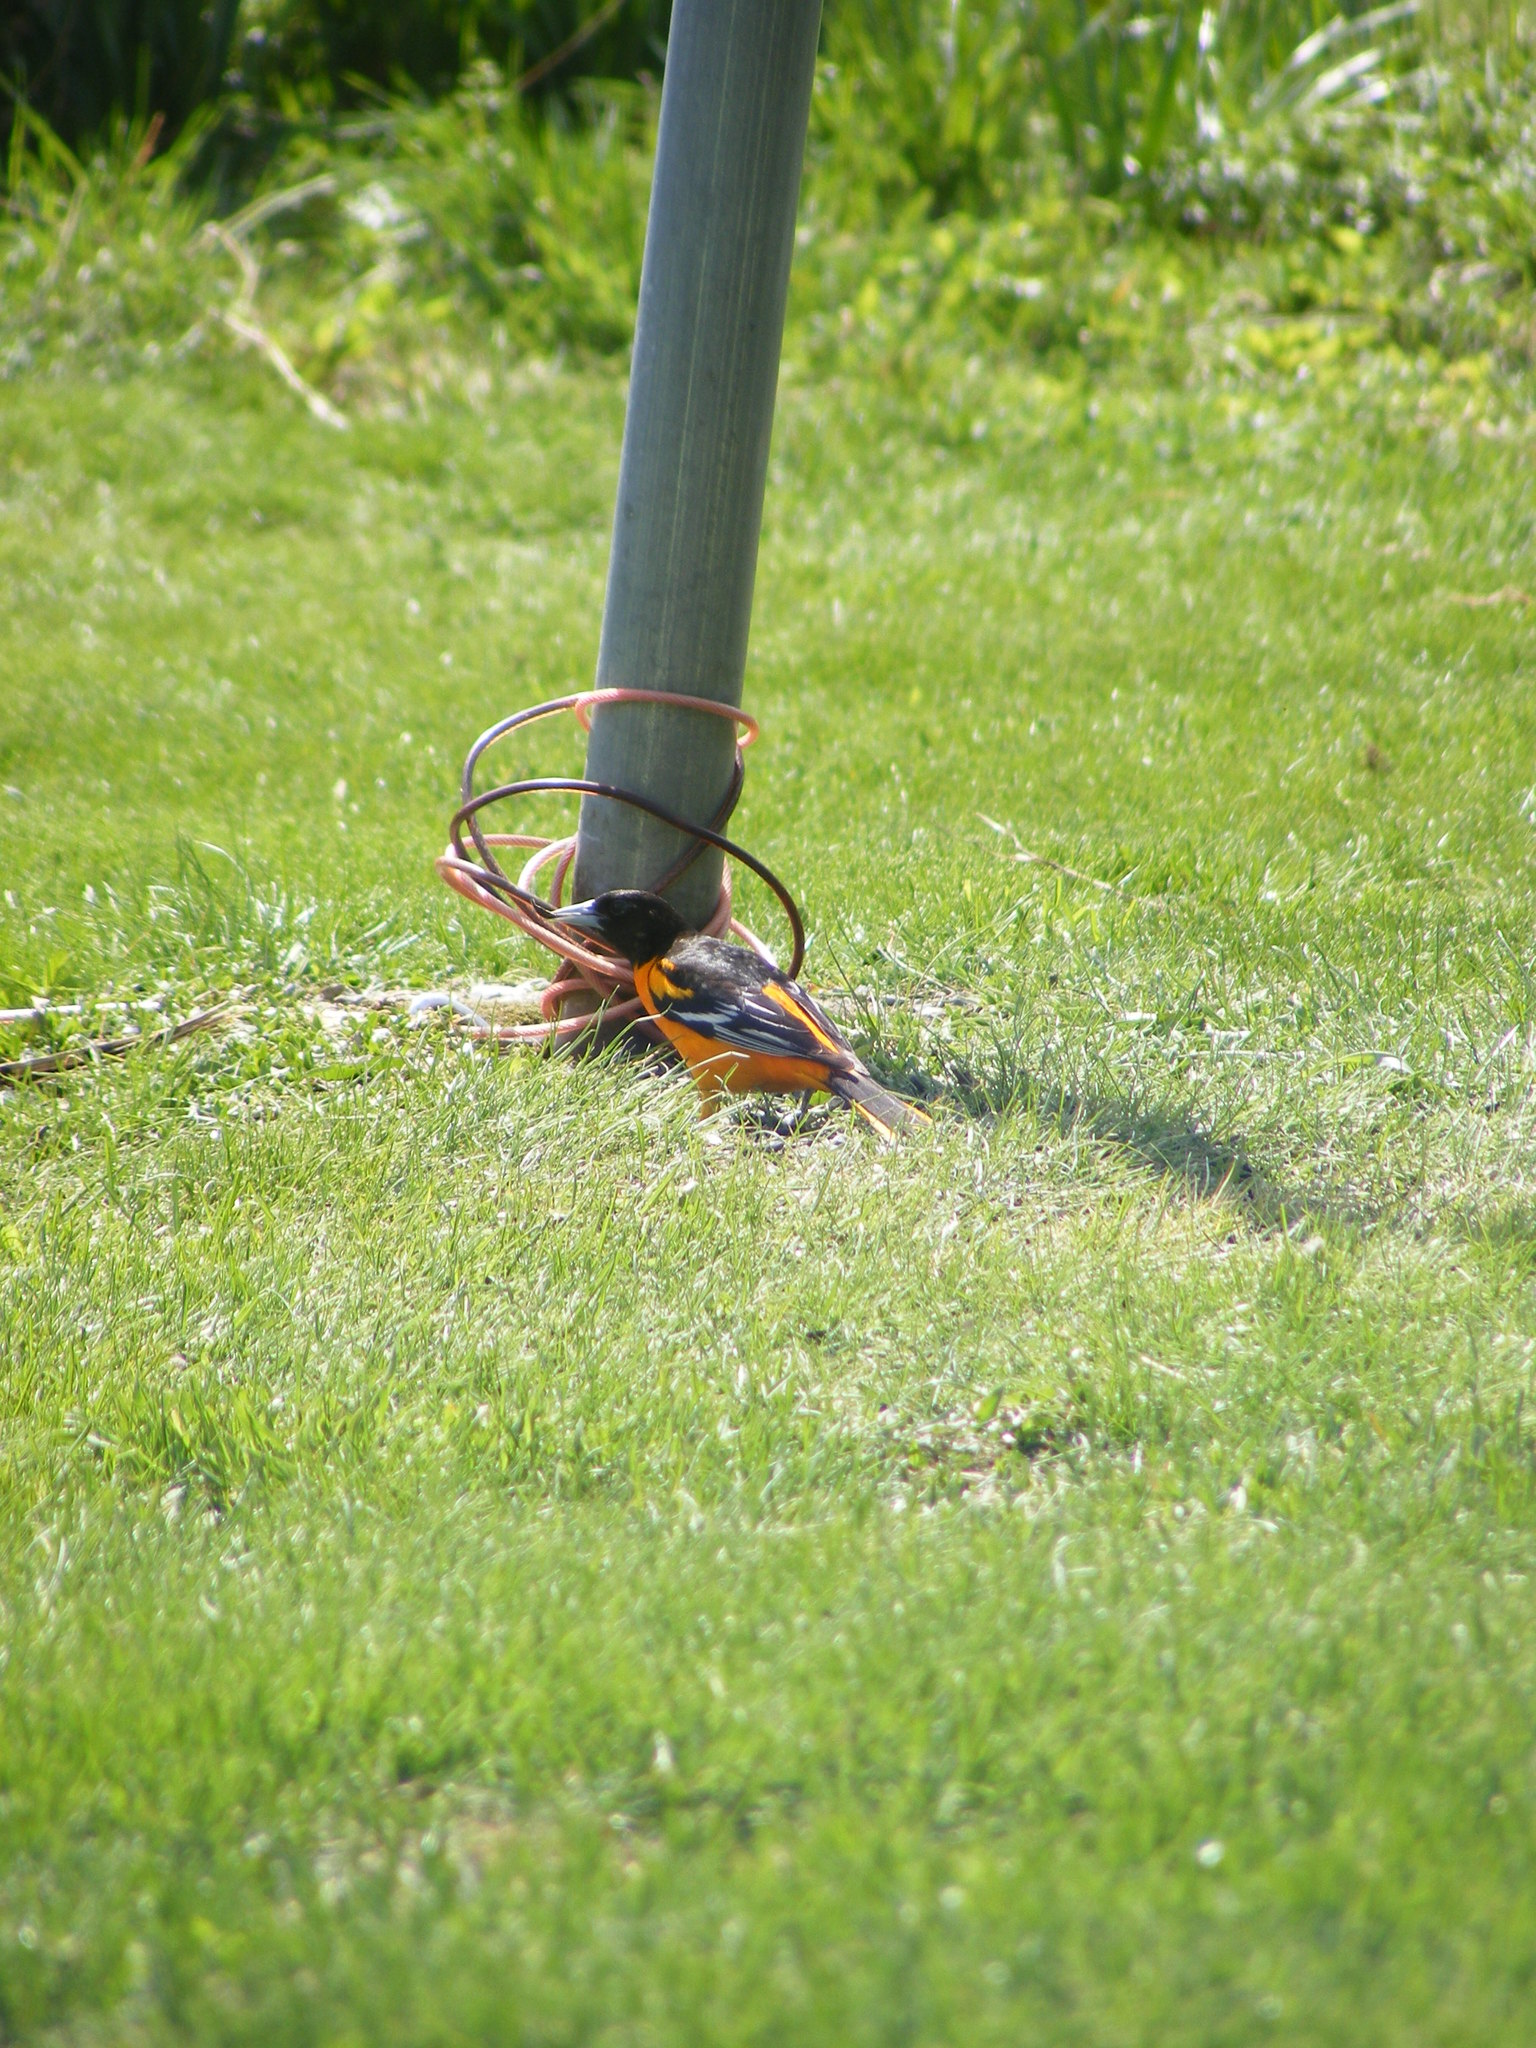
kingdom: Animalia
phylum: Chordata
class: Aves
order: Passeriformes
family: Icteridae
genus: Icterus
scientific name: Icterus galbula
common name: Baltimore oriole
